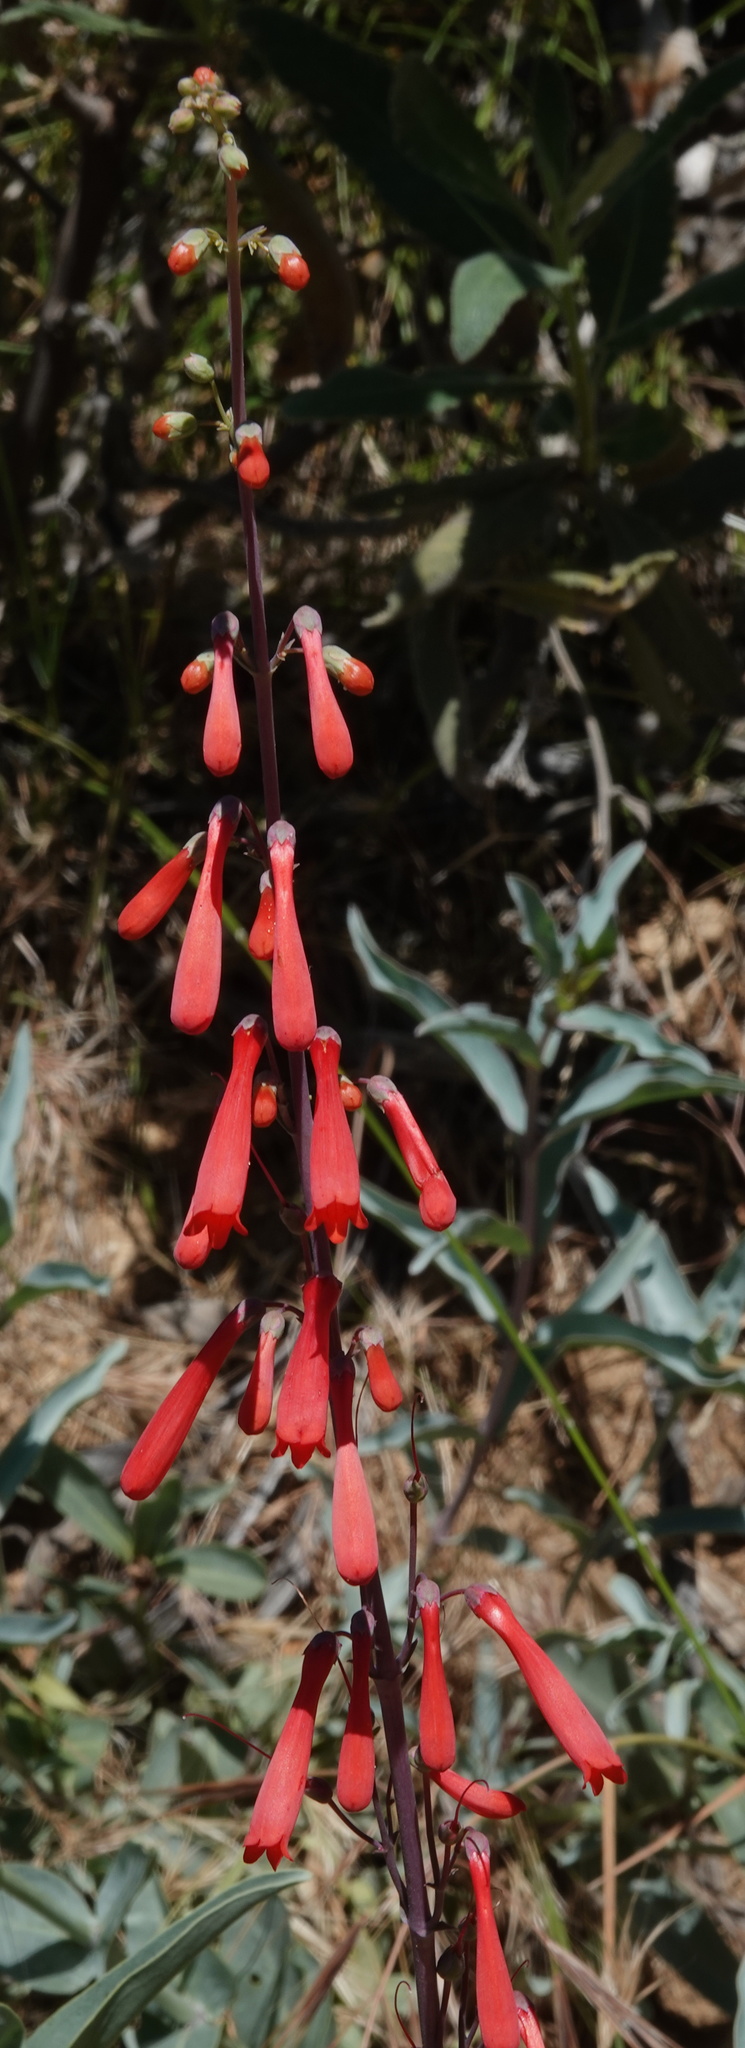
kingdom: Plantae
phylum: Tracheophyta
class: Magnoliopsida
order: Lamiales
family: Plantaginaceae
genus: Penstemon
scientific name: Penstemon centranthifolius
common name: Scarlet bugler
